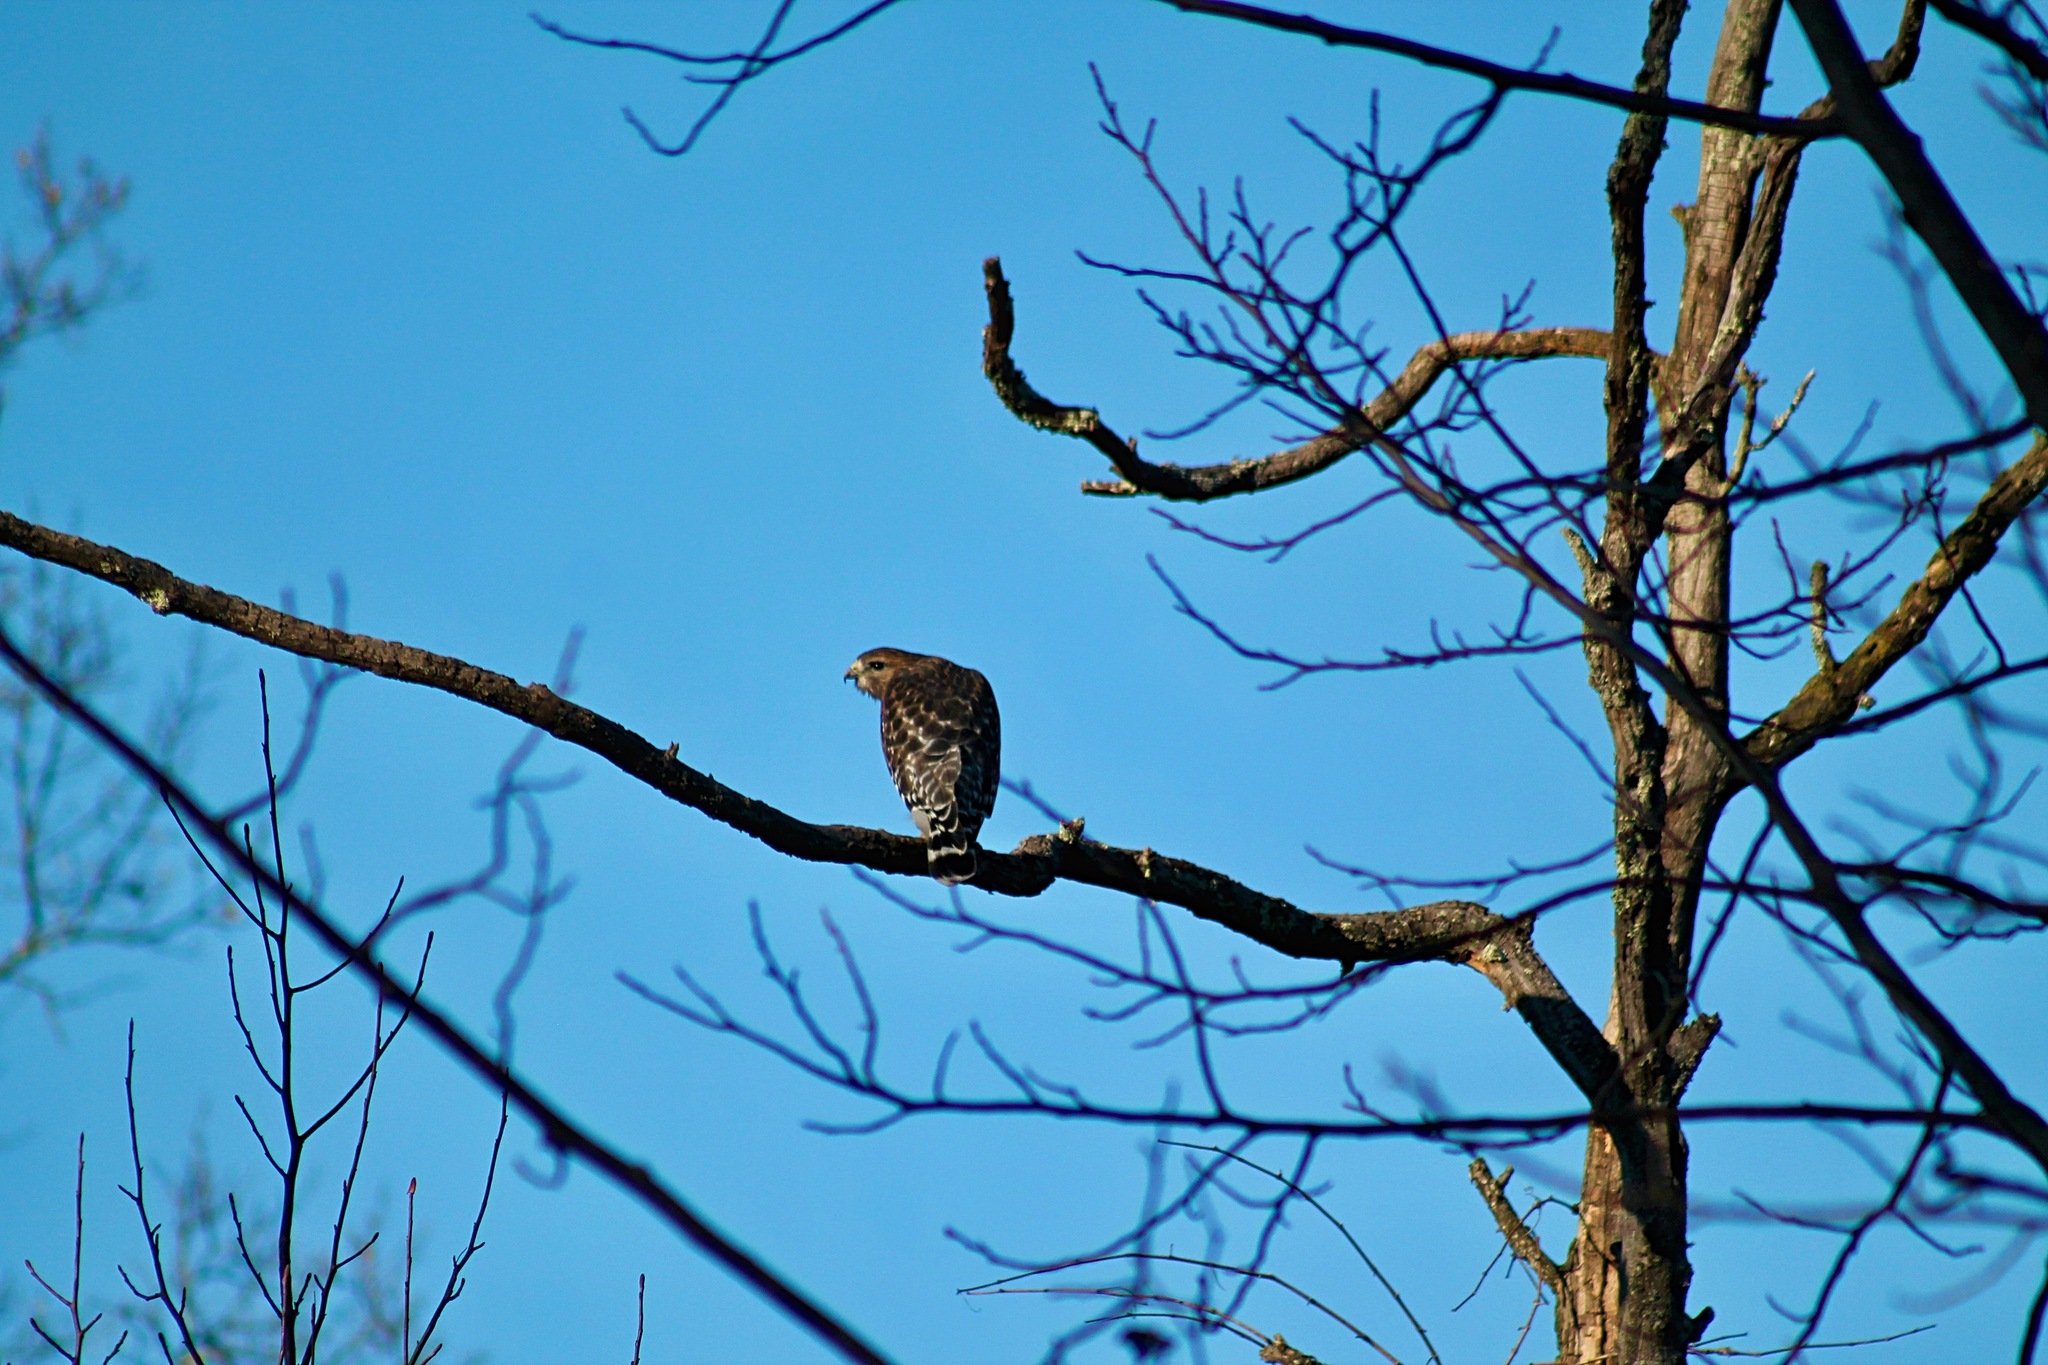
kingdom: Animalia
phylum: Chordata
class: Aves
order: Accipitriformes
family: Accipitridae
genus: Buteo
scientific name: Buteo lineatus
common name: Red-shouldered hawk
